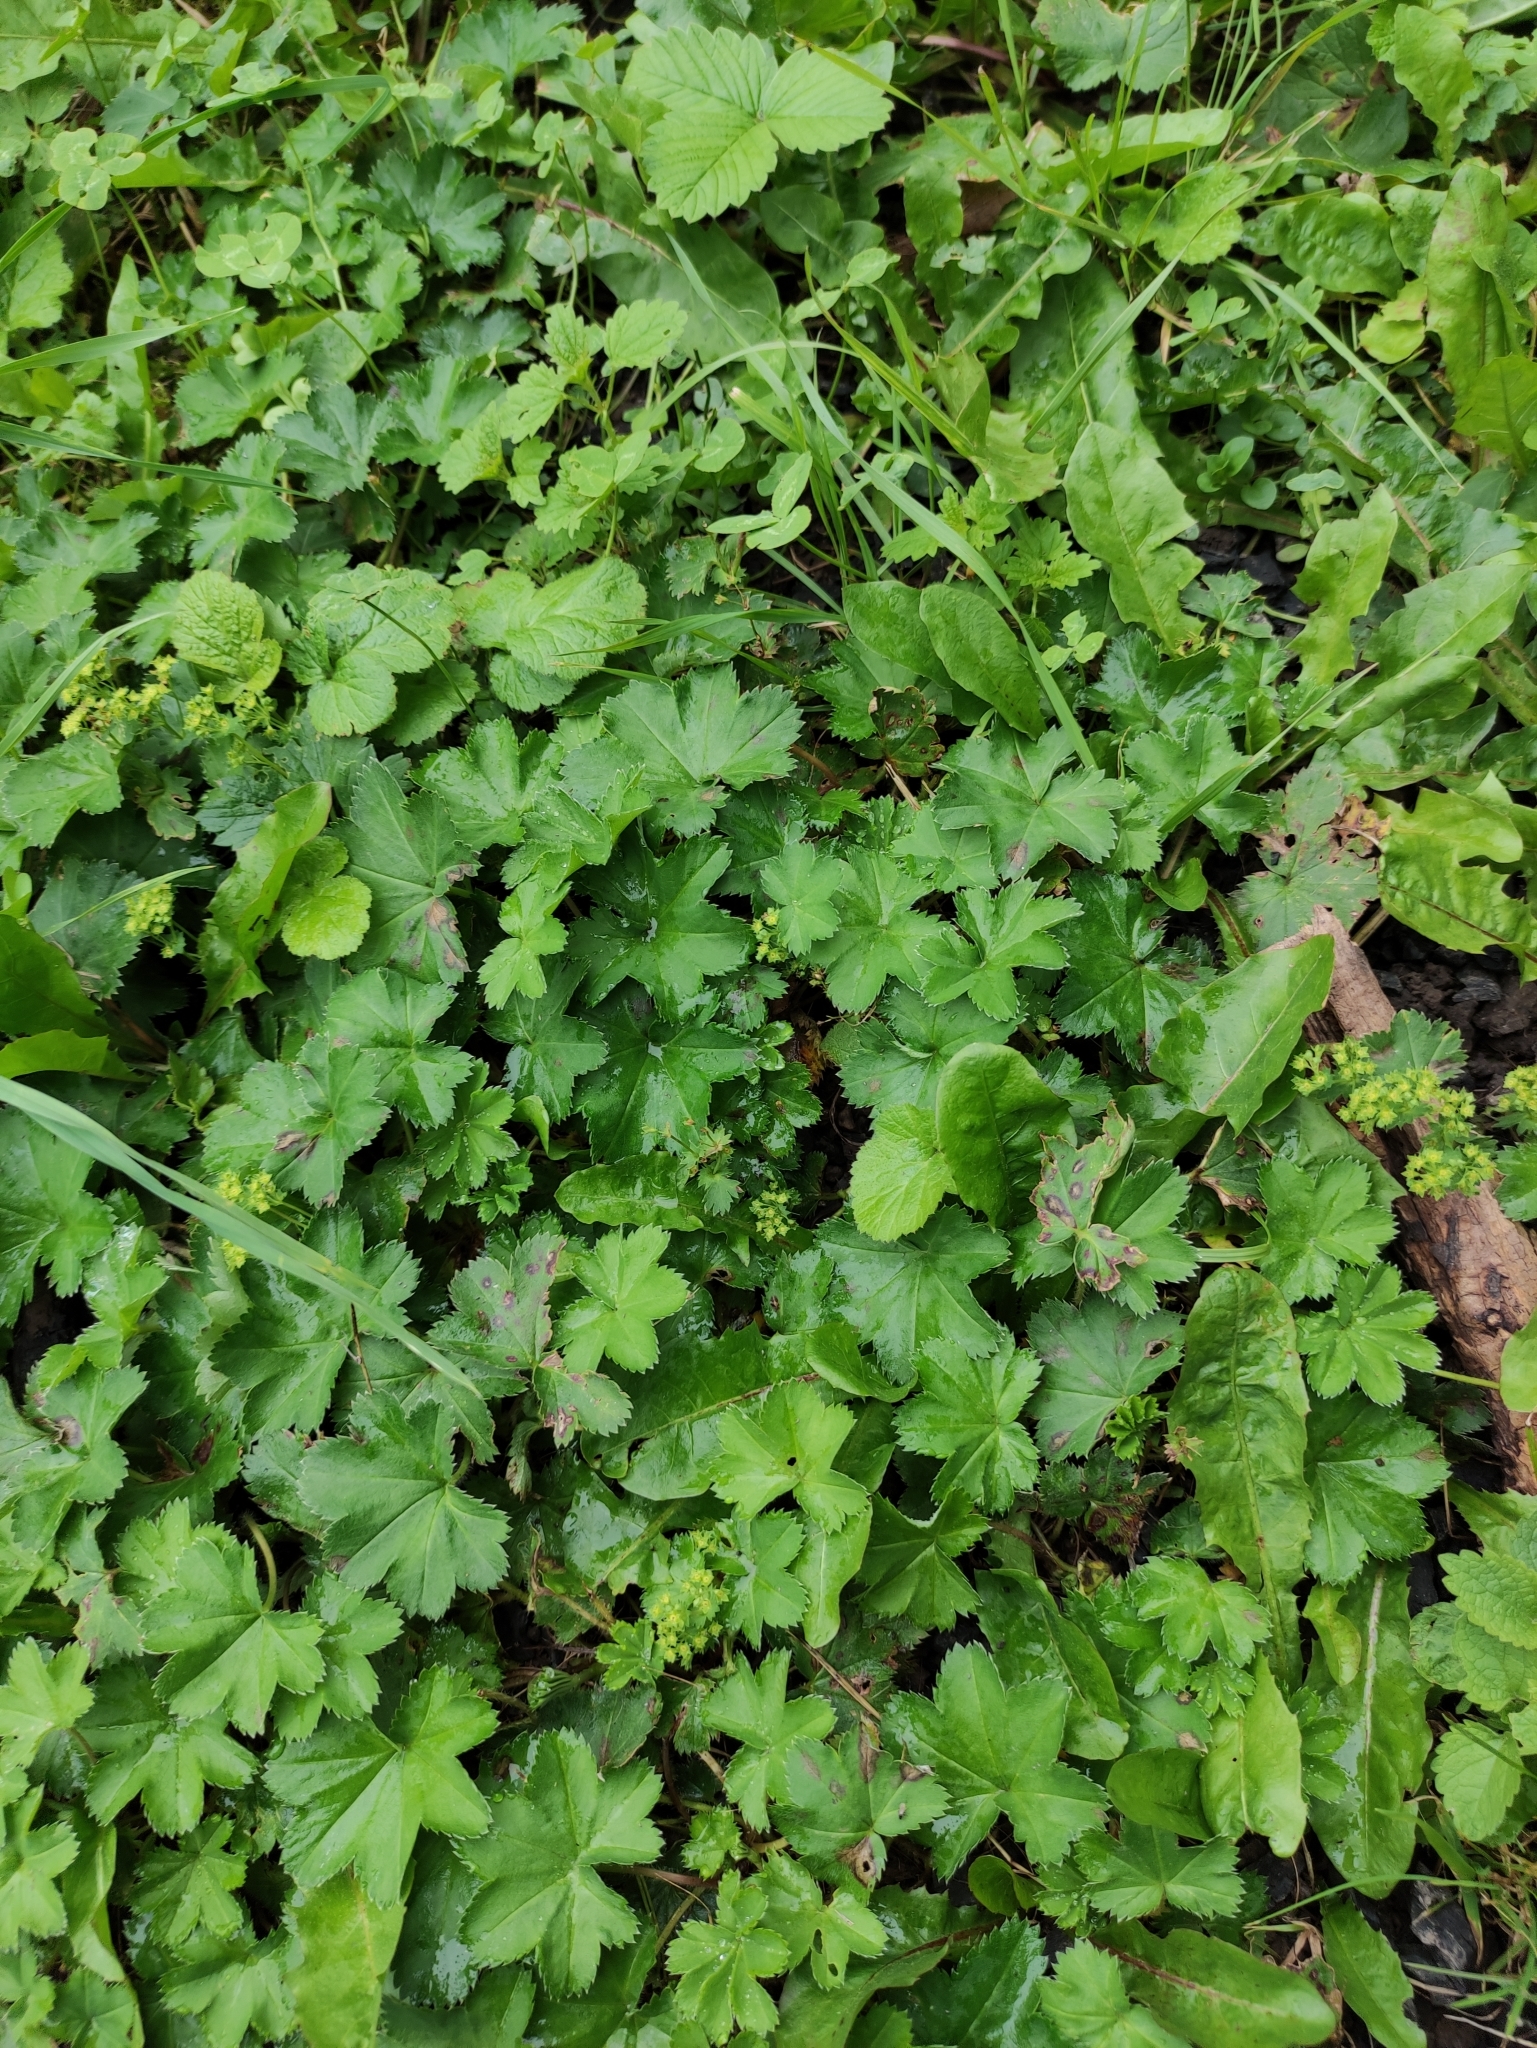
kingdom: Plantae
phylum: Tracheophyta
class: Magnoliopsida
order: Rosales
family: Rosaceae
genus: Alchemilla
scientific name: Alchemilla subcrenata
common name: Broadtooth lady's mantle
